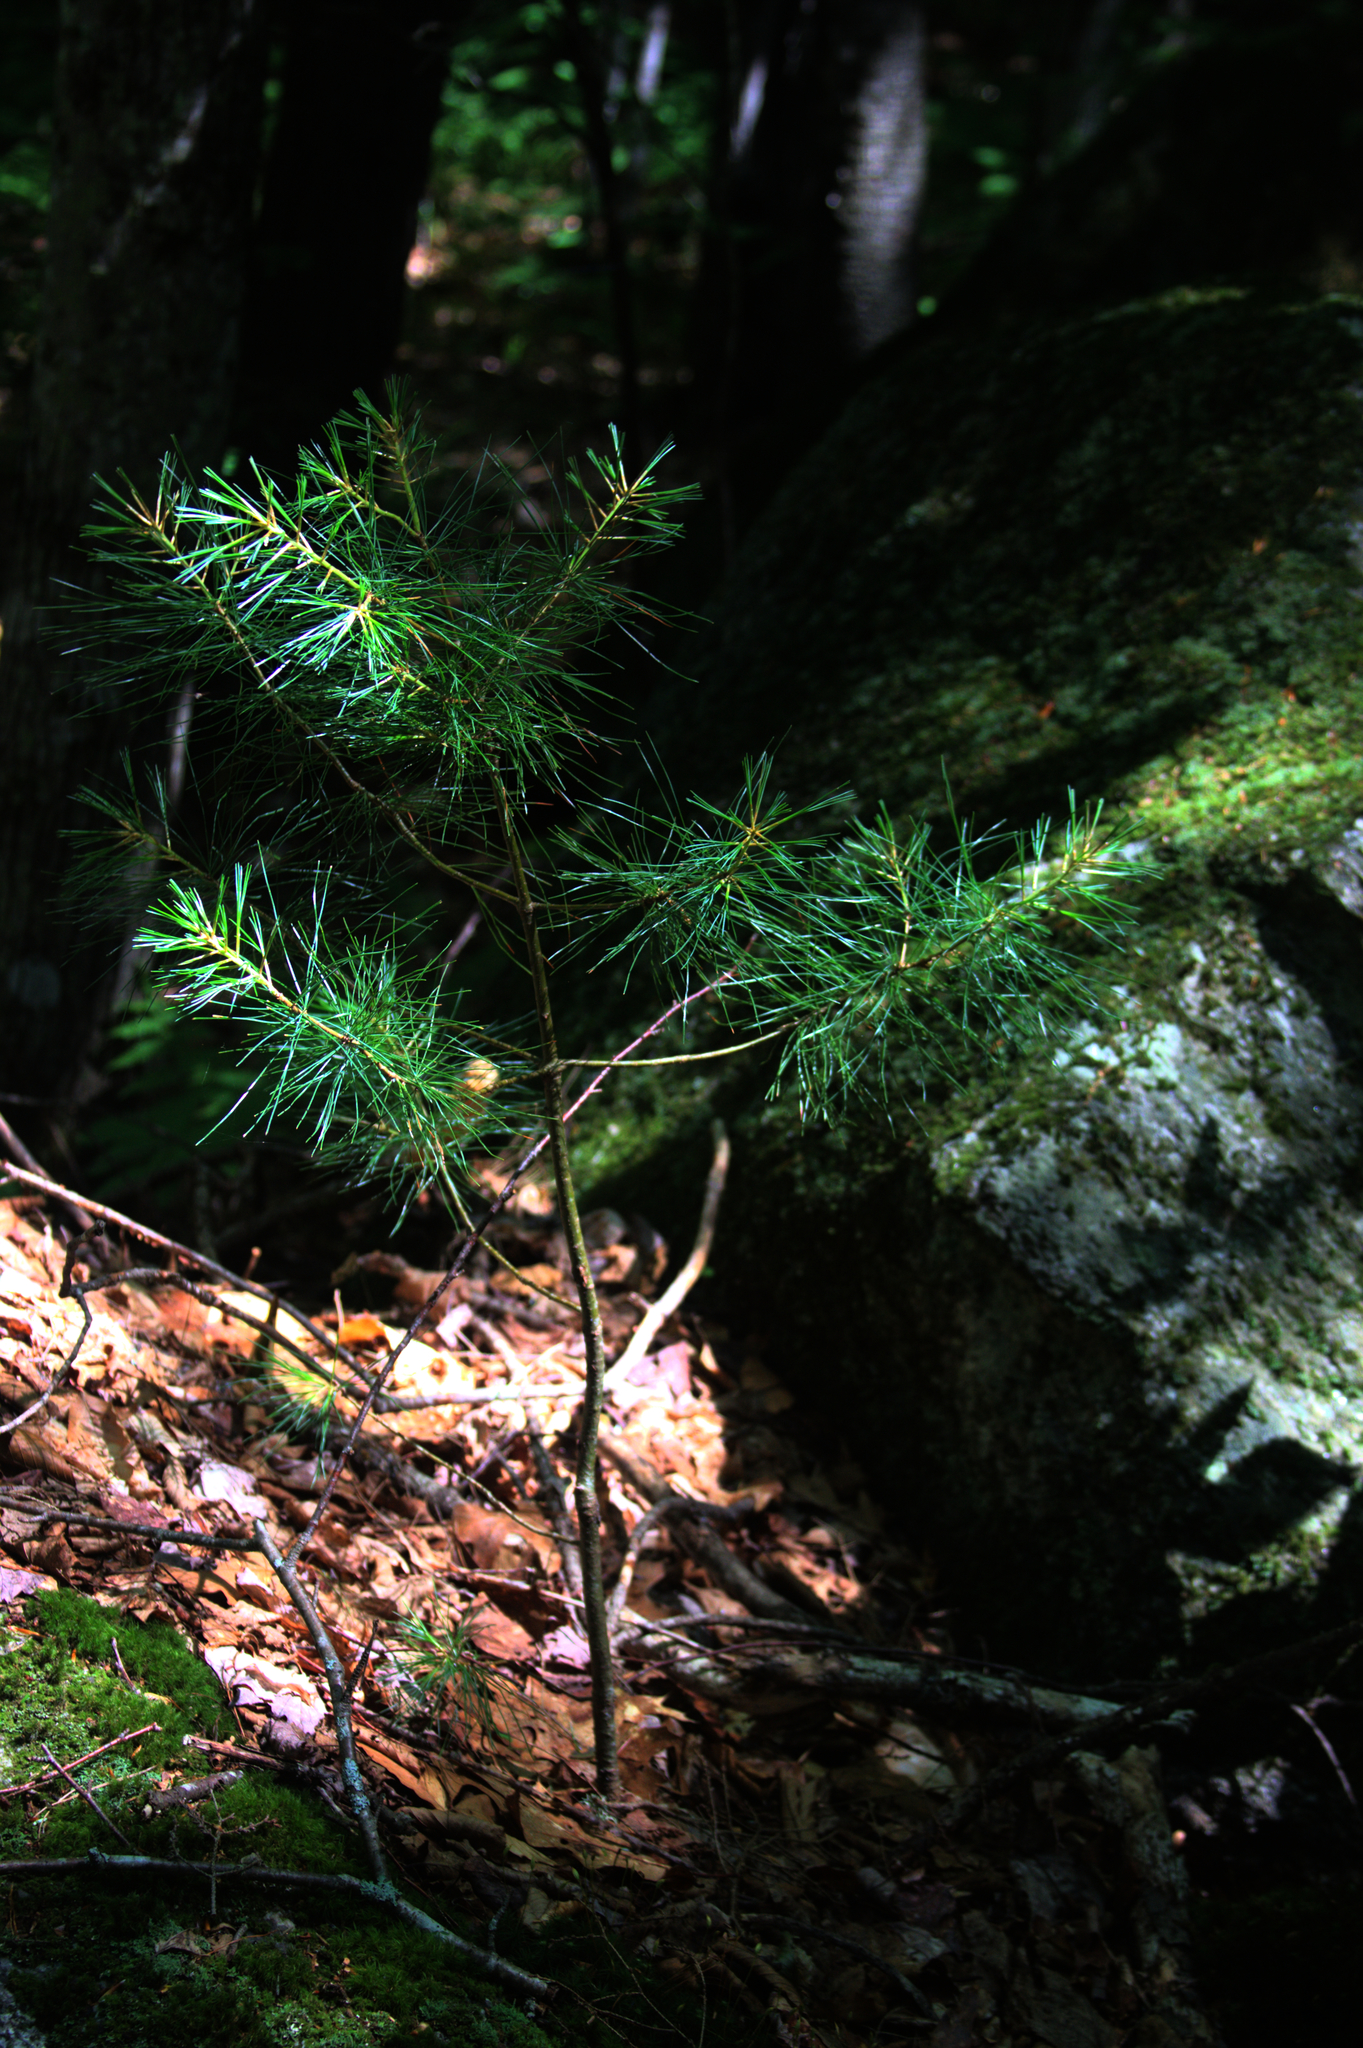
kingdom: Plantae
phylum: Tracheophyta
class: Pinopsida
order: Pinales
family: Pinaceae
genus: Pinus
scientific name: Pinus strobus
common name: Weymouth pine
